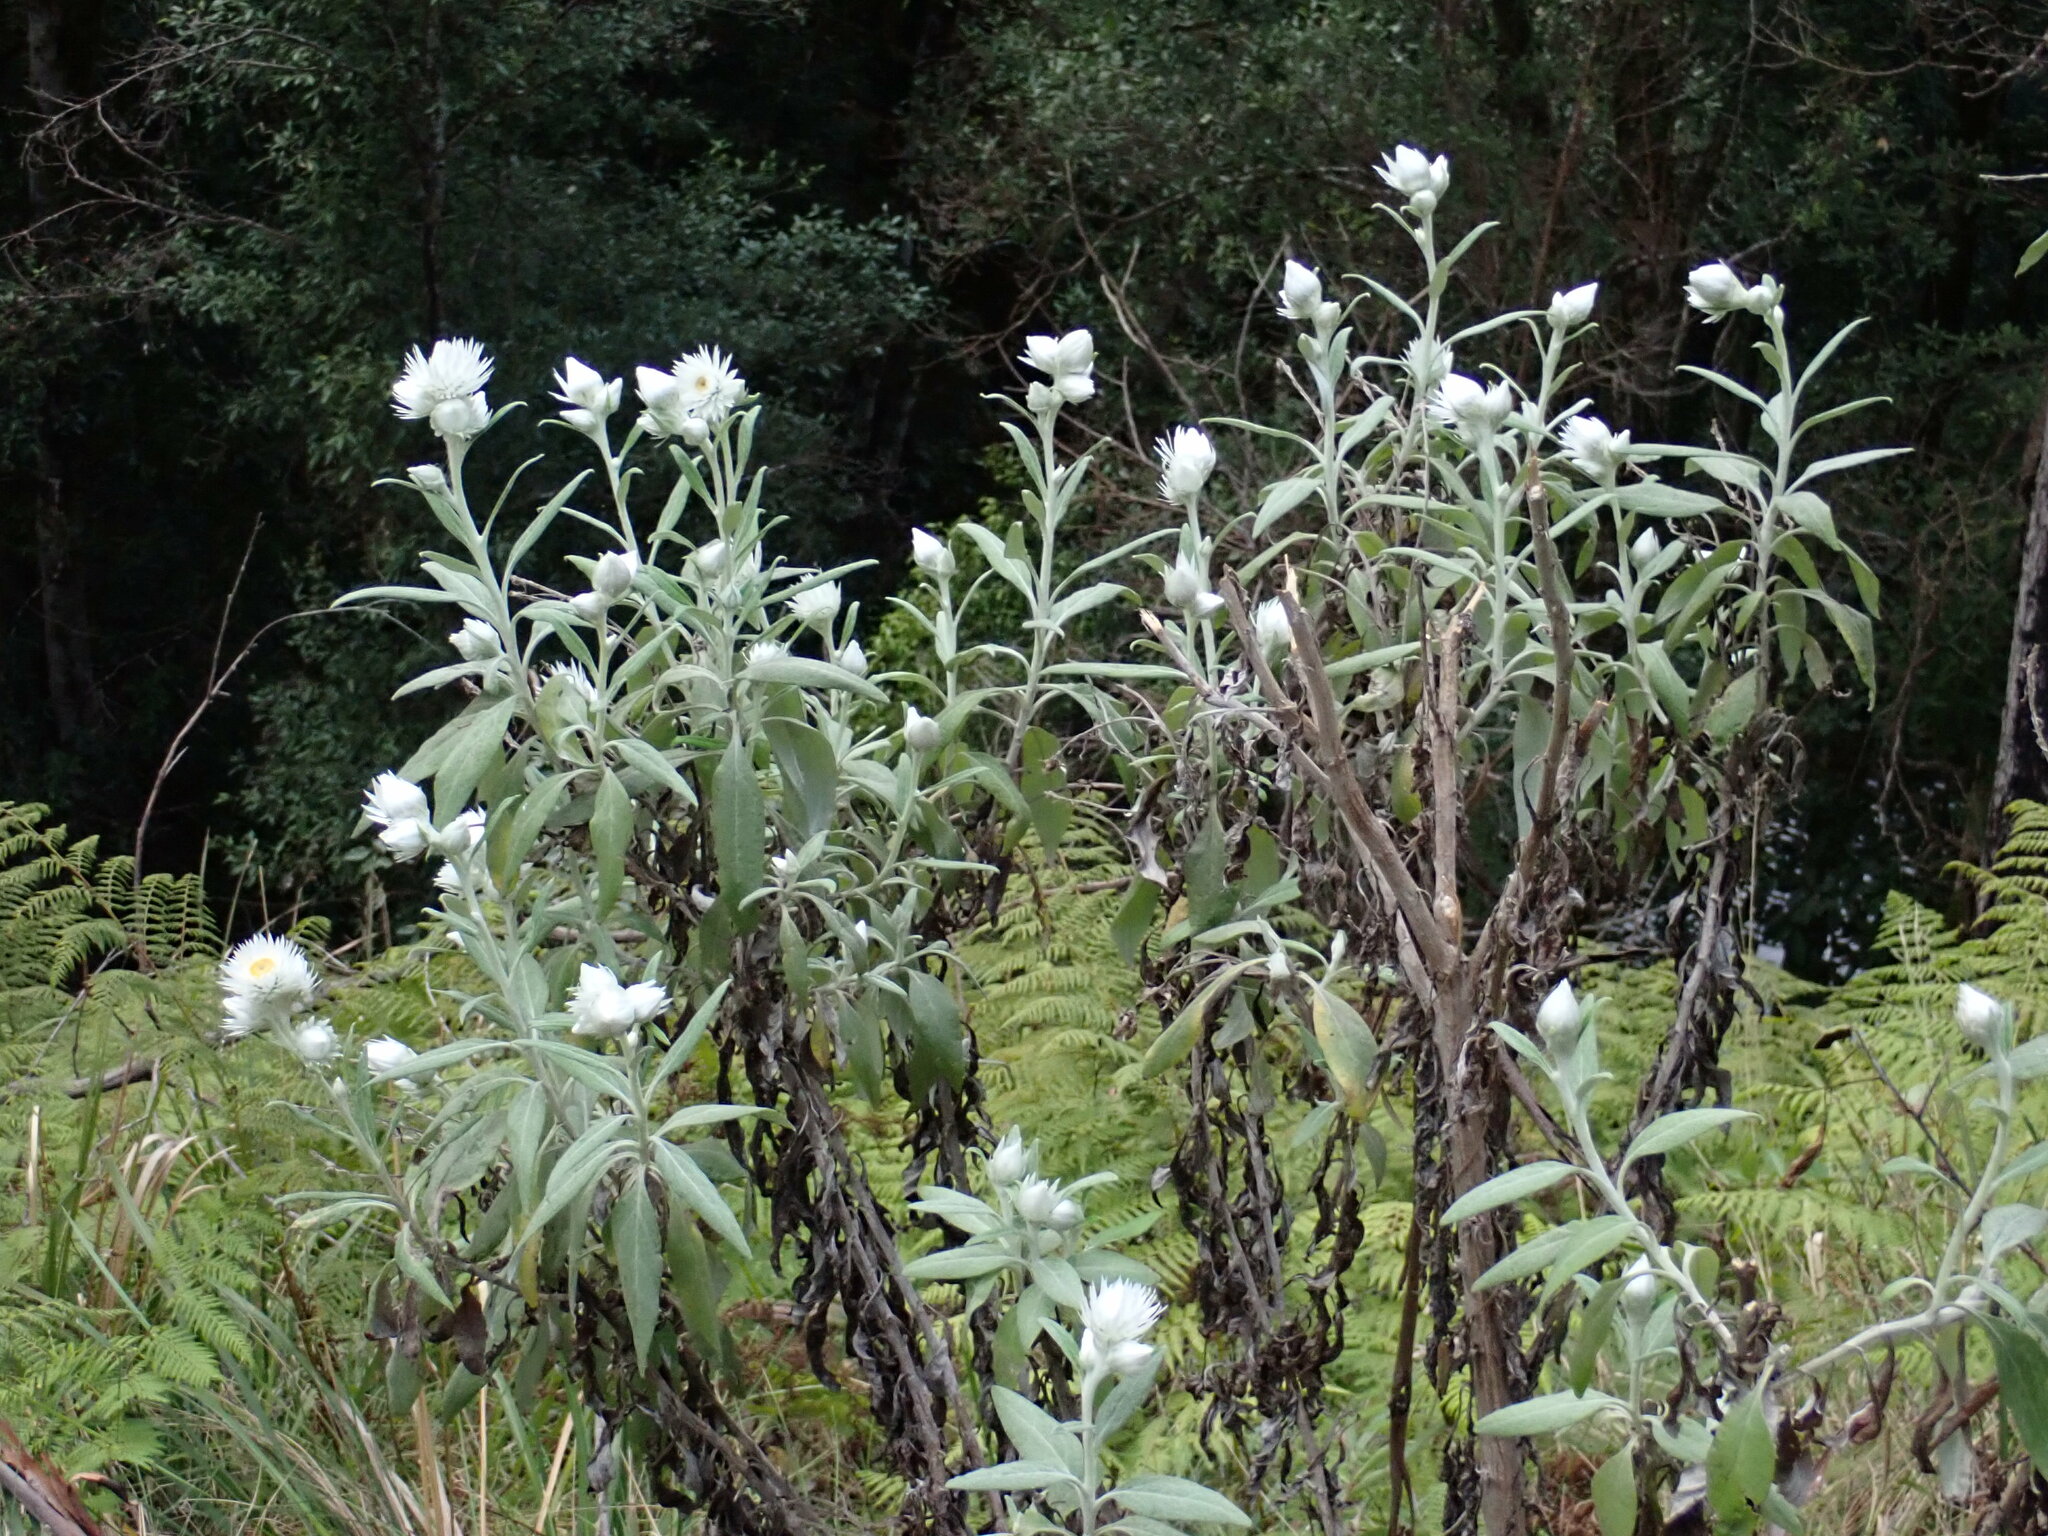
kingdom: Plantae
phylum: Tracheophyta
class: Magnoliopsida
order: Asterales
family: Asteraceae
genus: Leucozoma
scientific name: Leucozoma elatum
